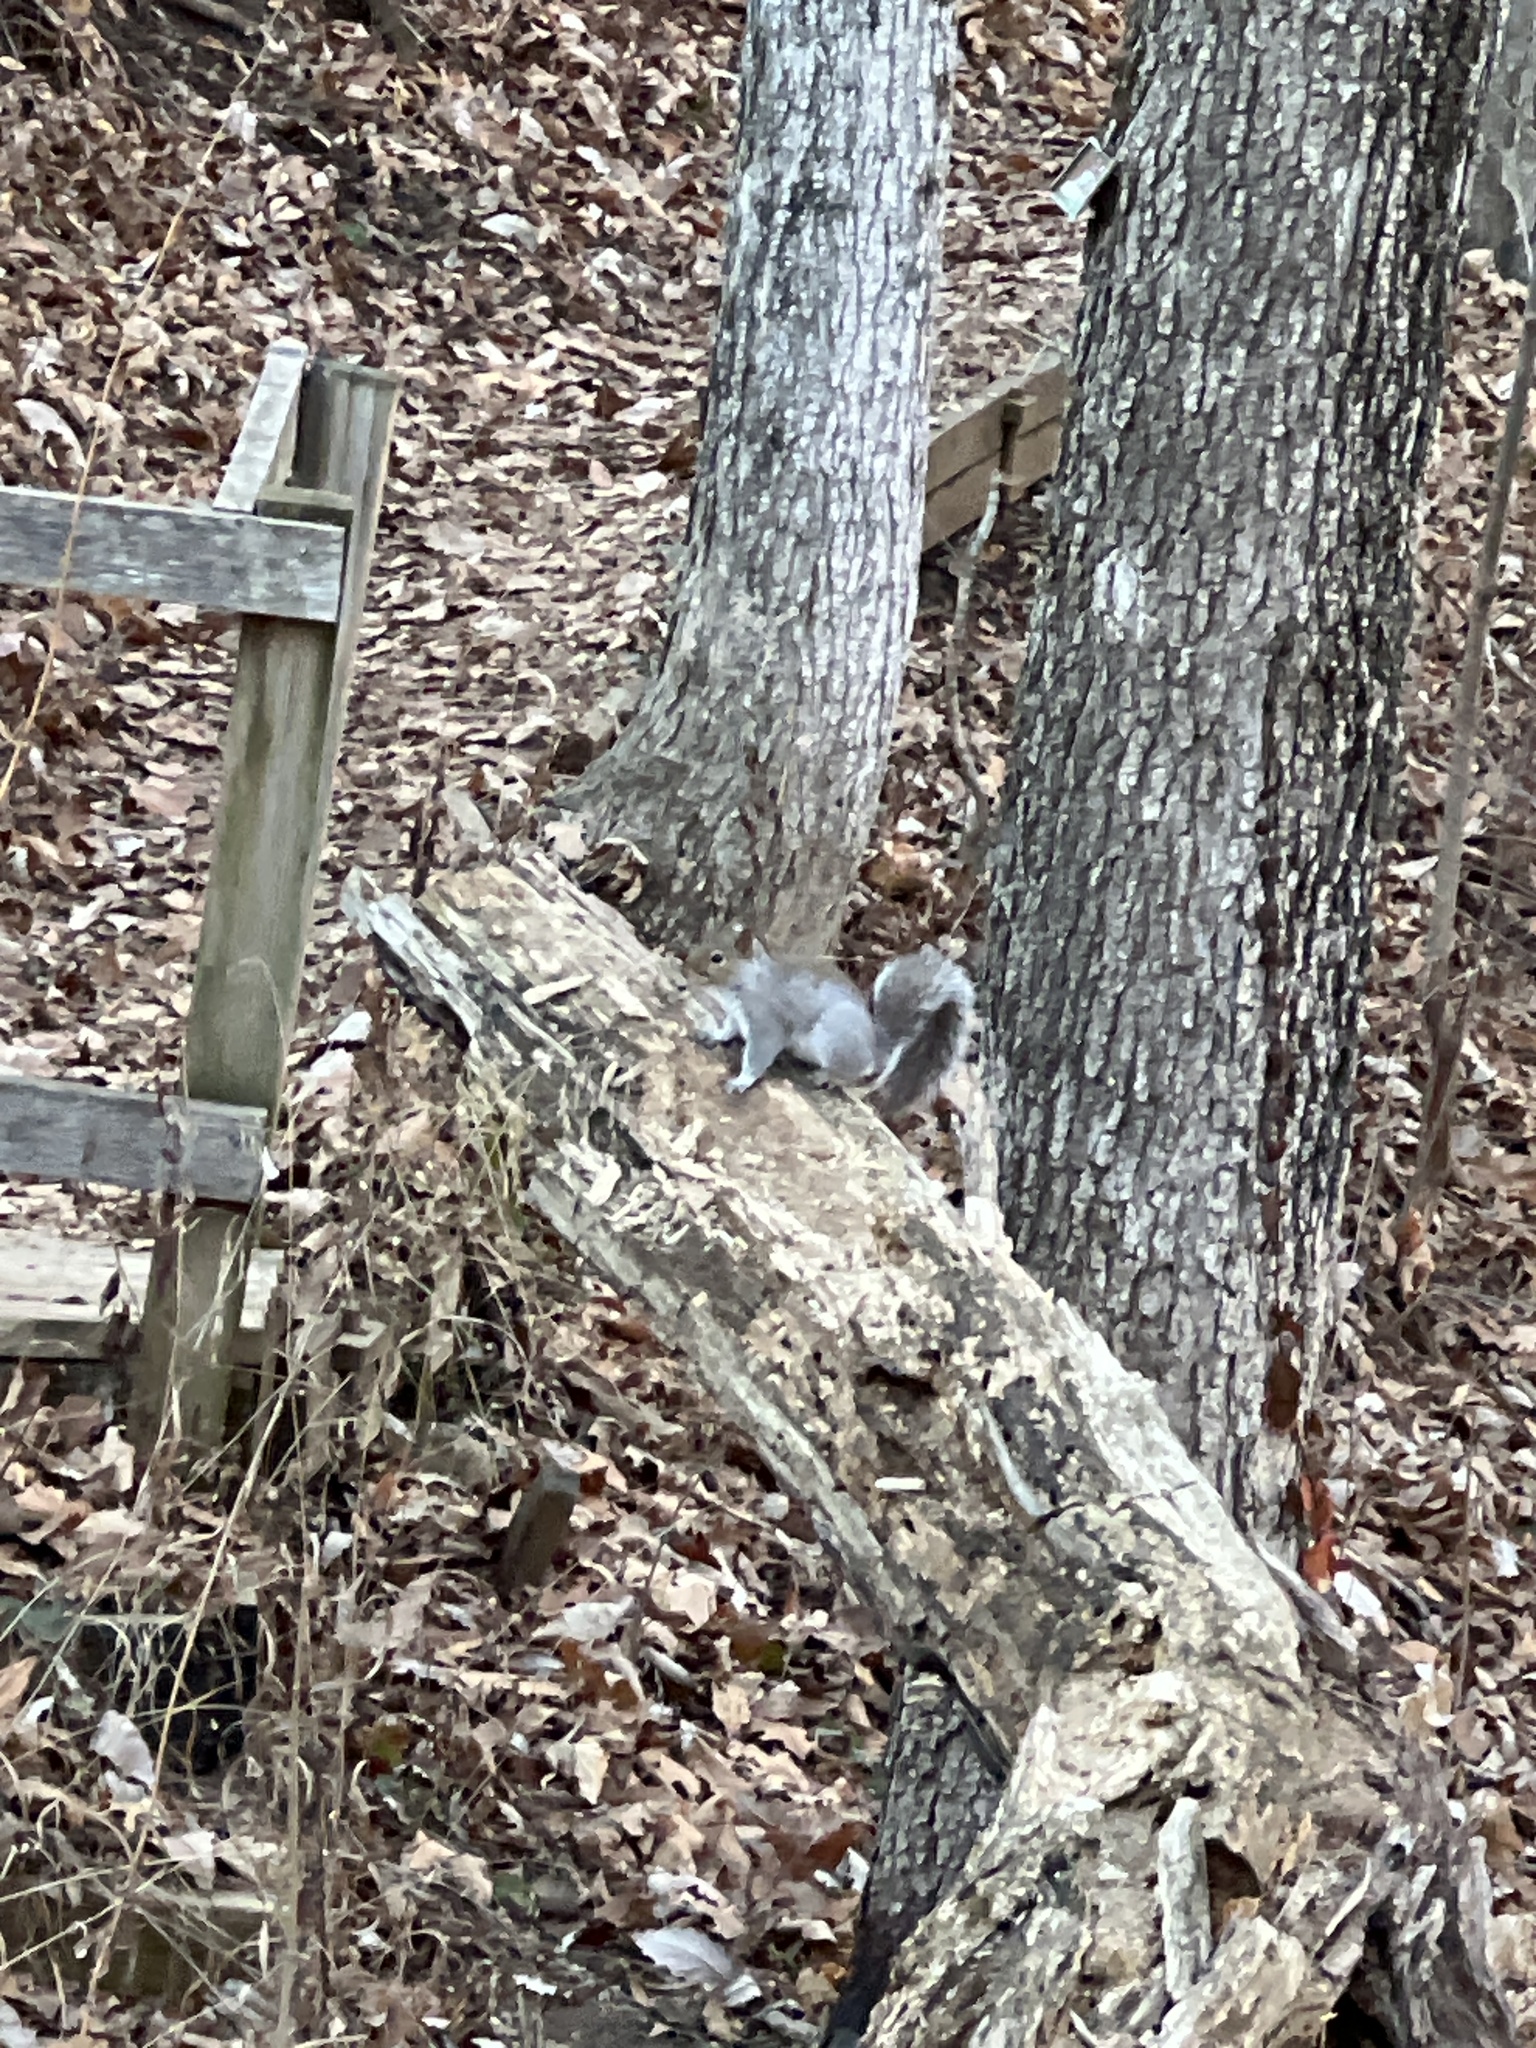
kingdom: Animalia
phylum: Chordata
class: Mammalia
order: Rodentia
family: Sciuridae
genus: Sciurus
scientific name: Sciurus carolinensis
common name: Eastern gray squirrel
